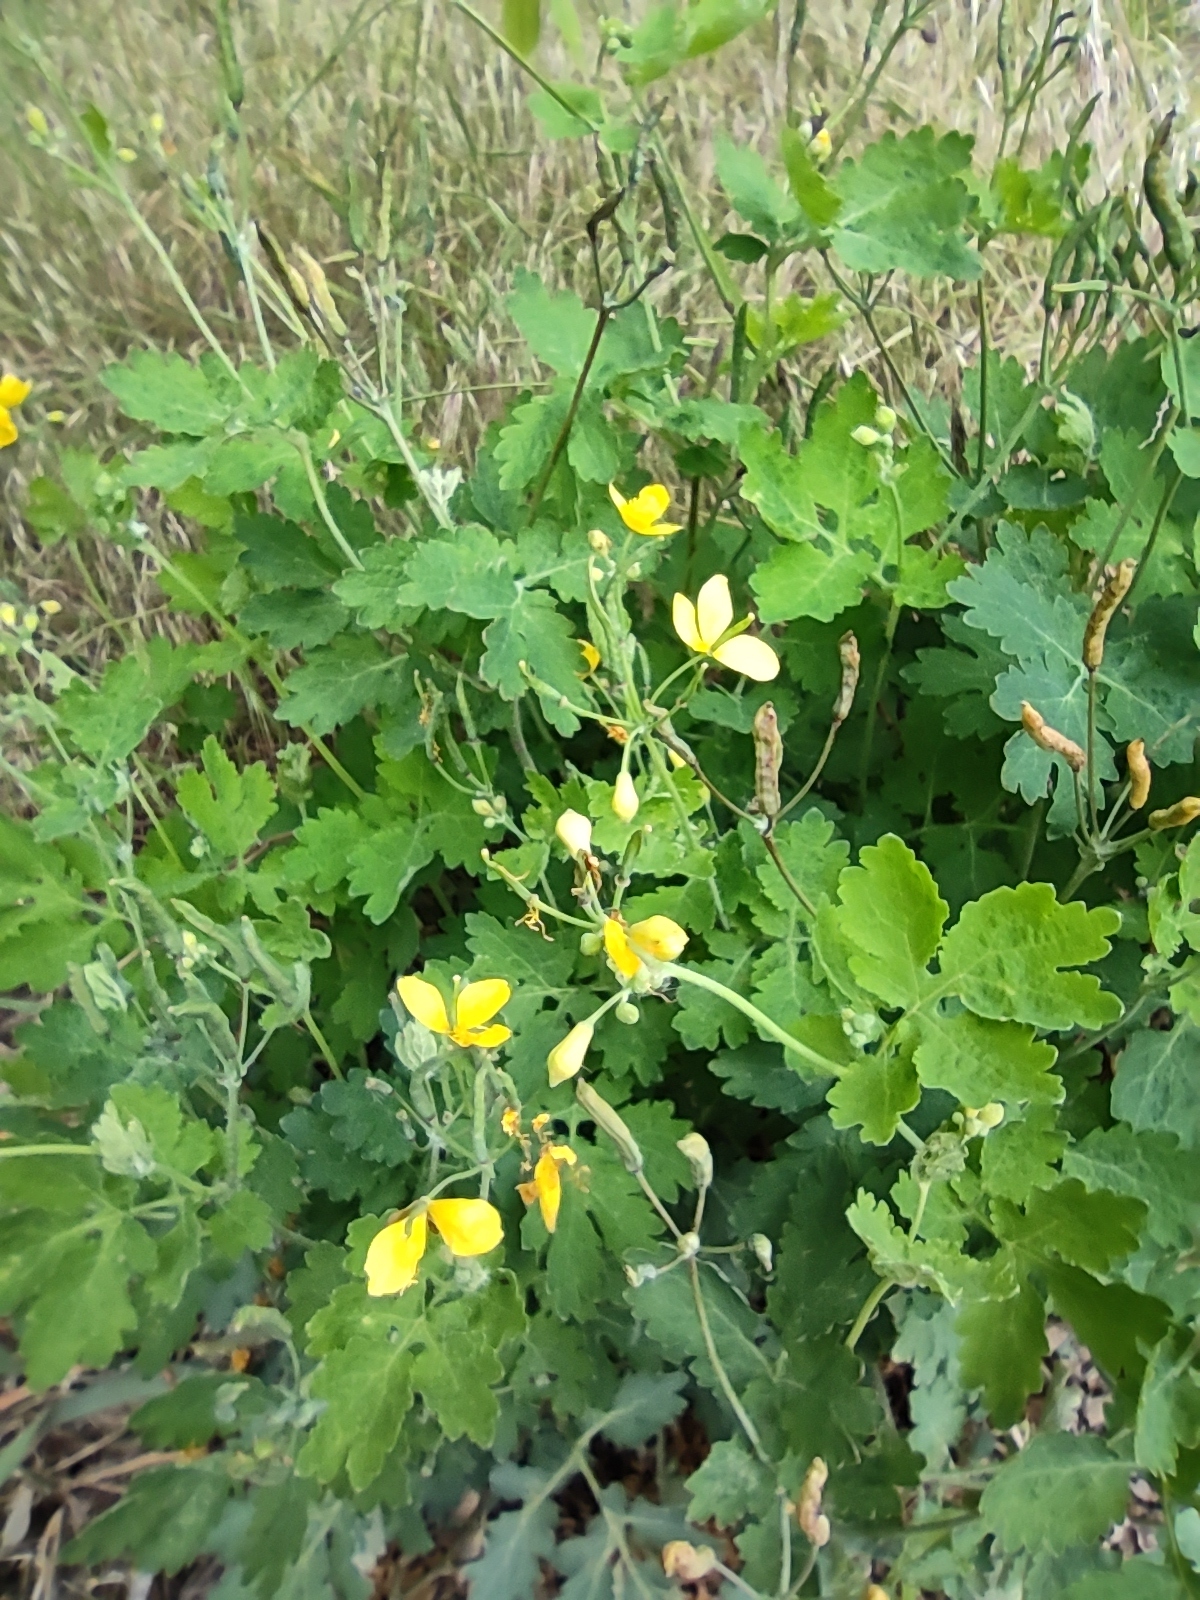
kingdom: Plantae
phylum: Tracheophyta
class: Magnoliopsida
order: Ranunculales
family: Papaveraceae
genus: Chelidonium
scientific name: Chelidonium majus
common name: Greater celandine
